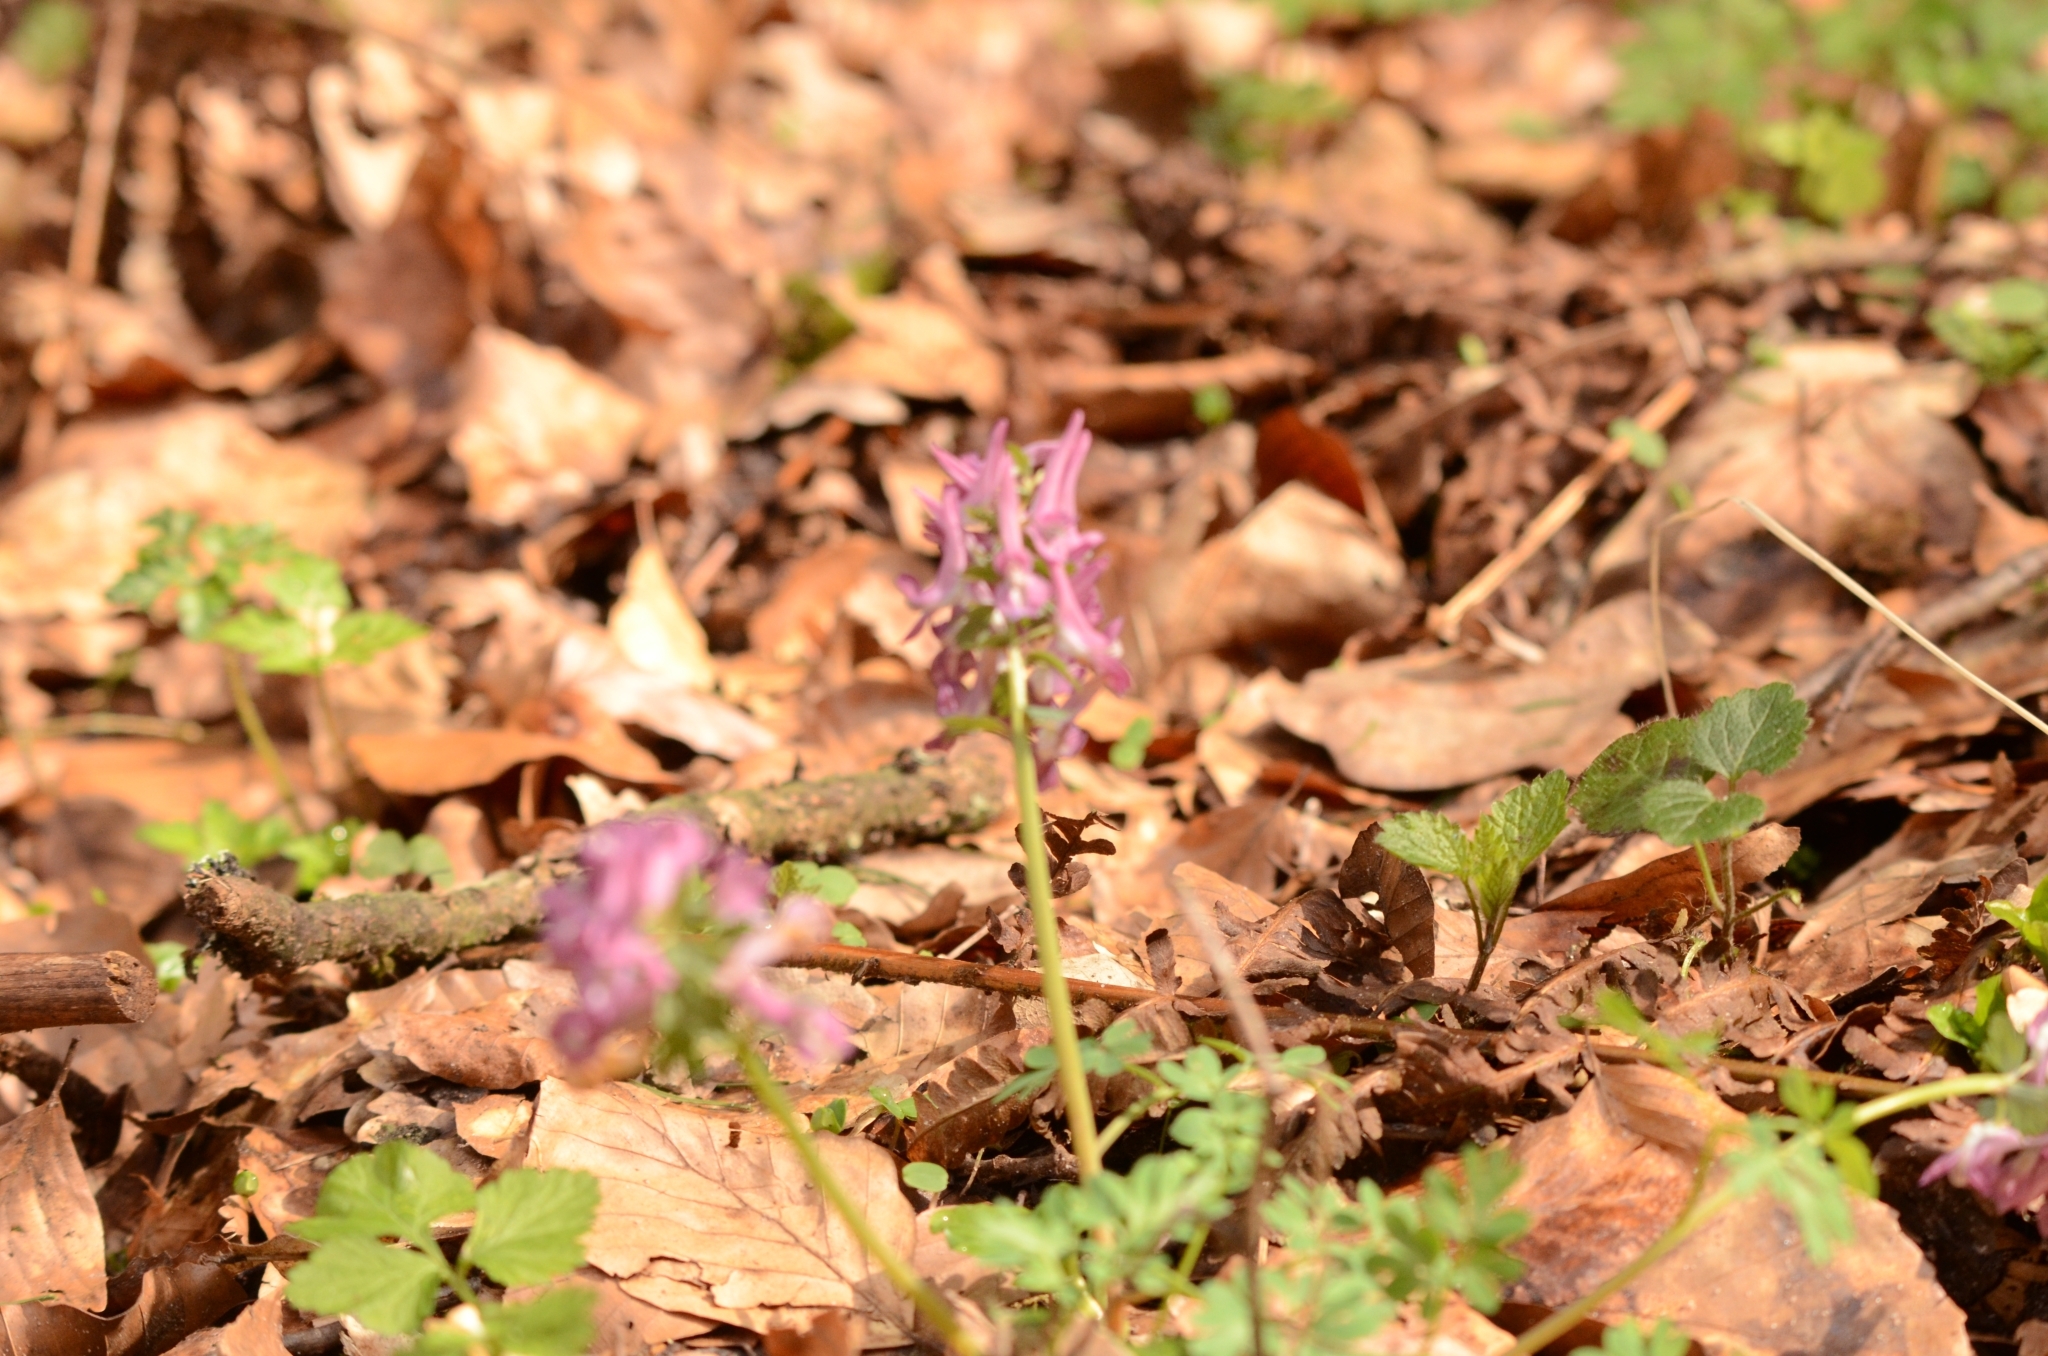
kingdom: Plantae
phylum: Tracheophyta
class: Magnoliopsida
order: Ranunculales
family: Papaveraceae
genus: Corydalis
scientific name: Corydalis solida
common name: Bird-in-a-bush
